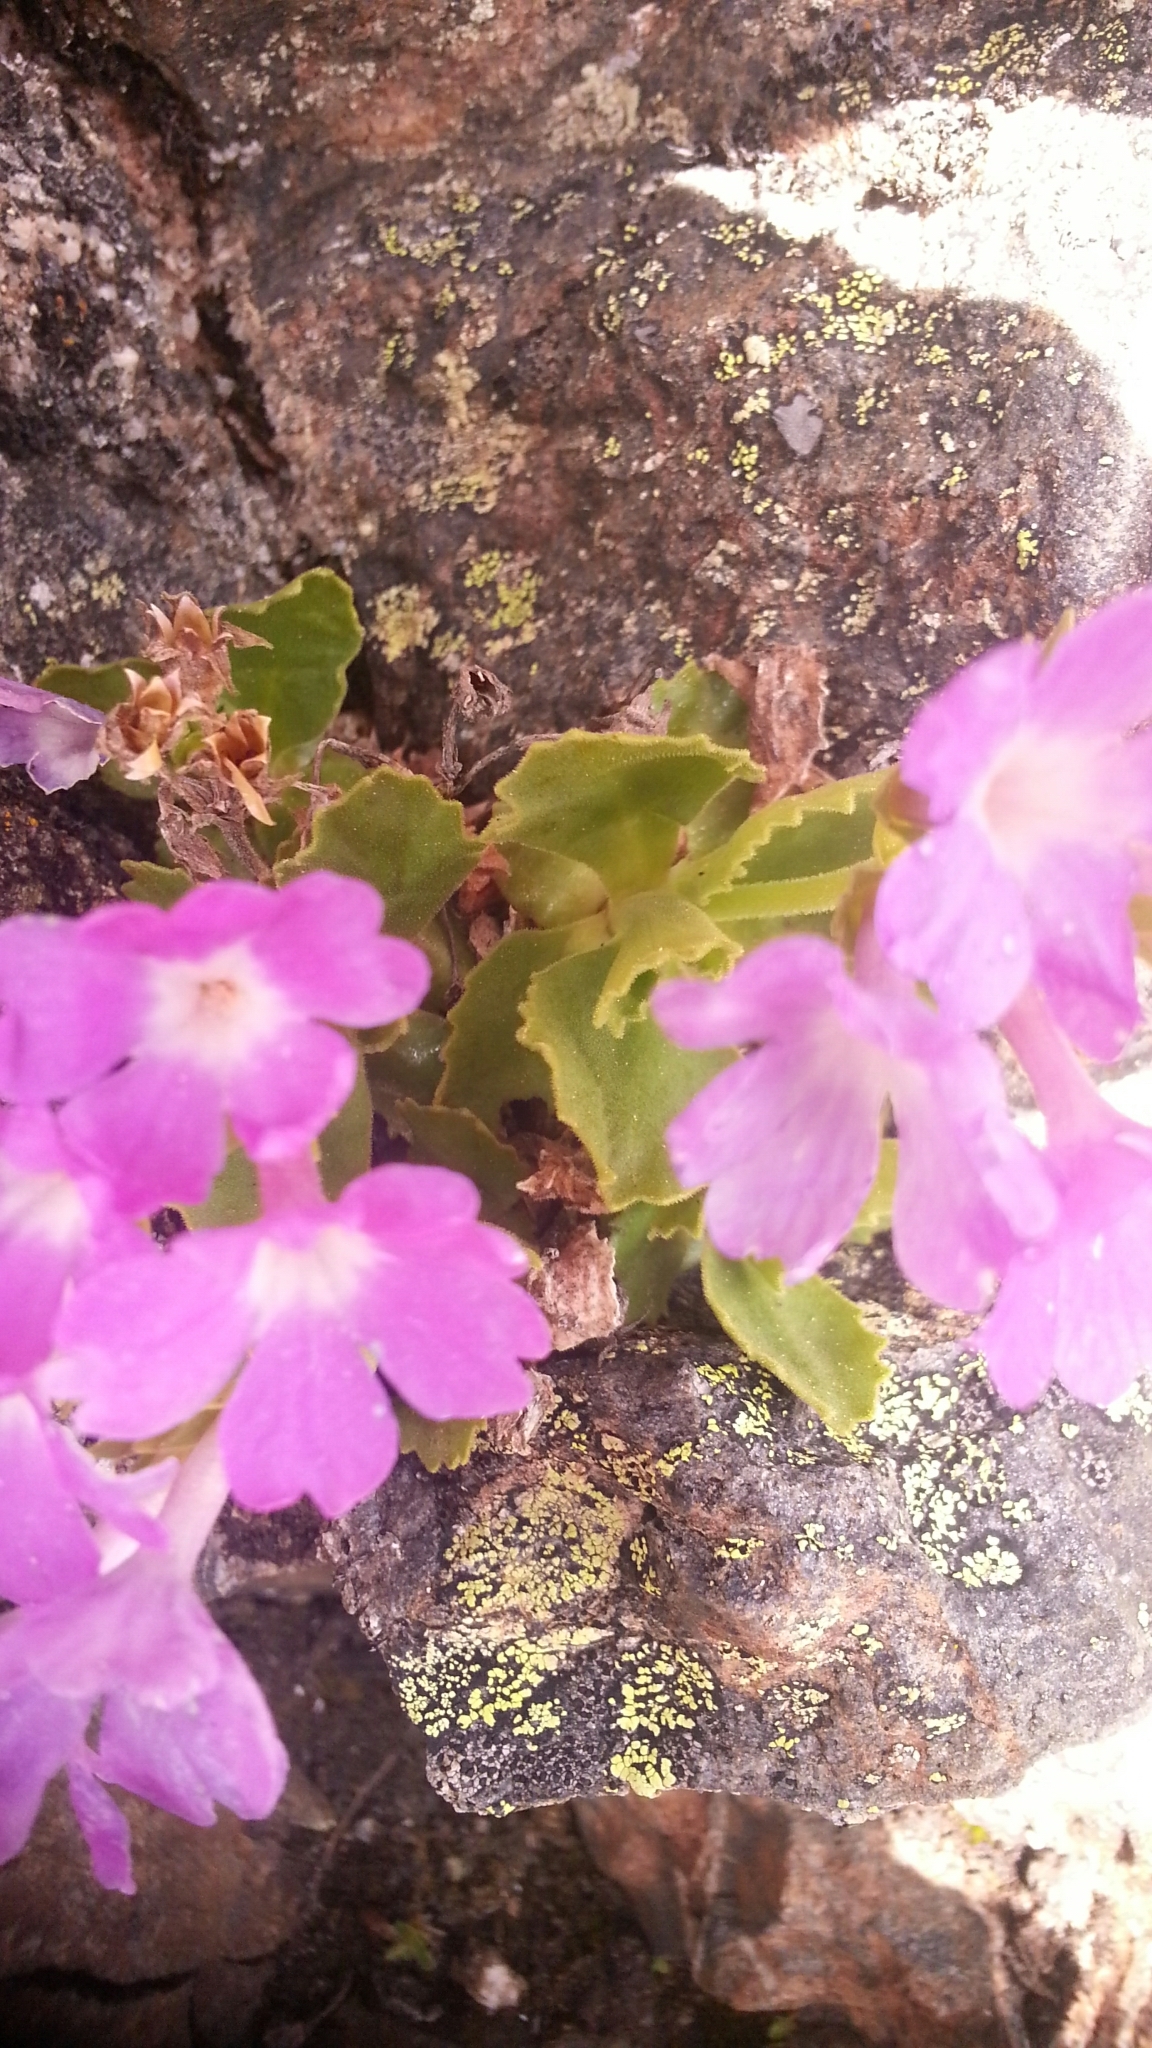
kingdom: Plantae
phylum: Tracheophyta
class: Magnoliopsida
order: Ericales
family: Primulaceae
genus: Primula
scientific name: Primula hirsuta
